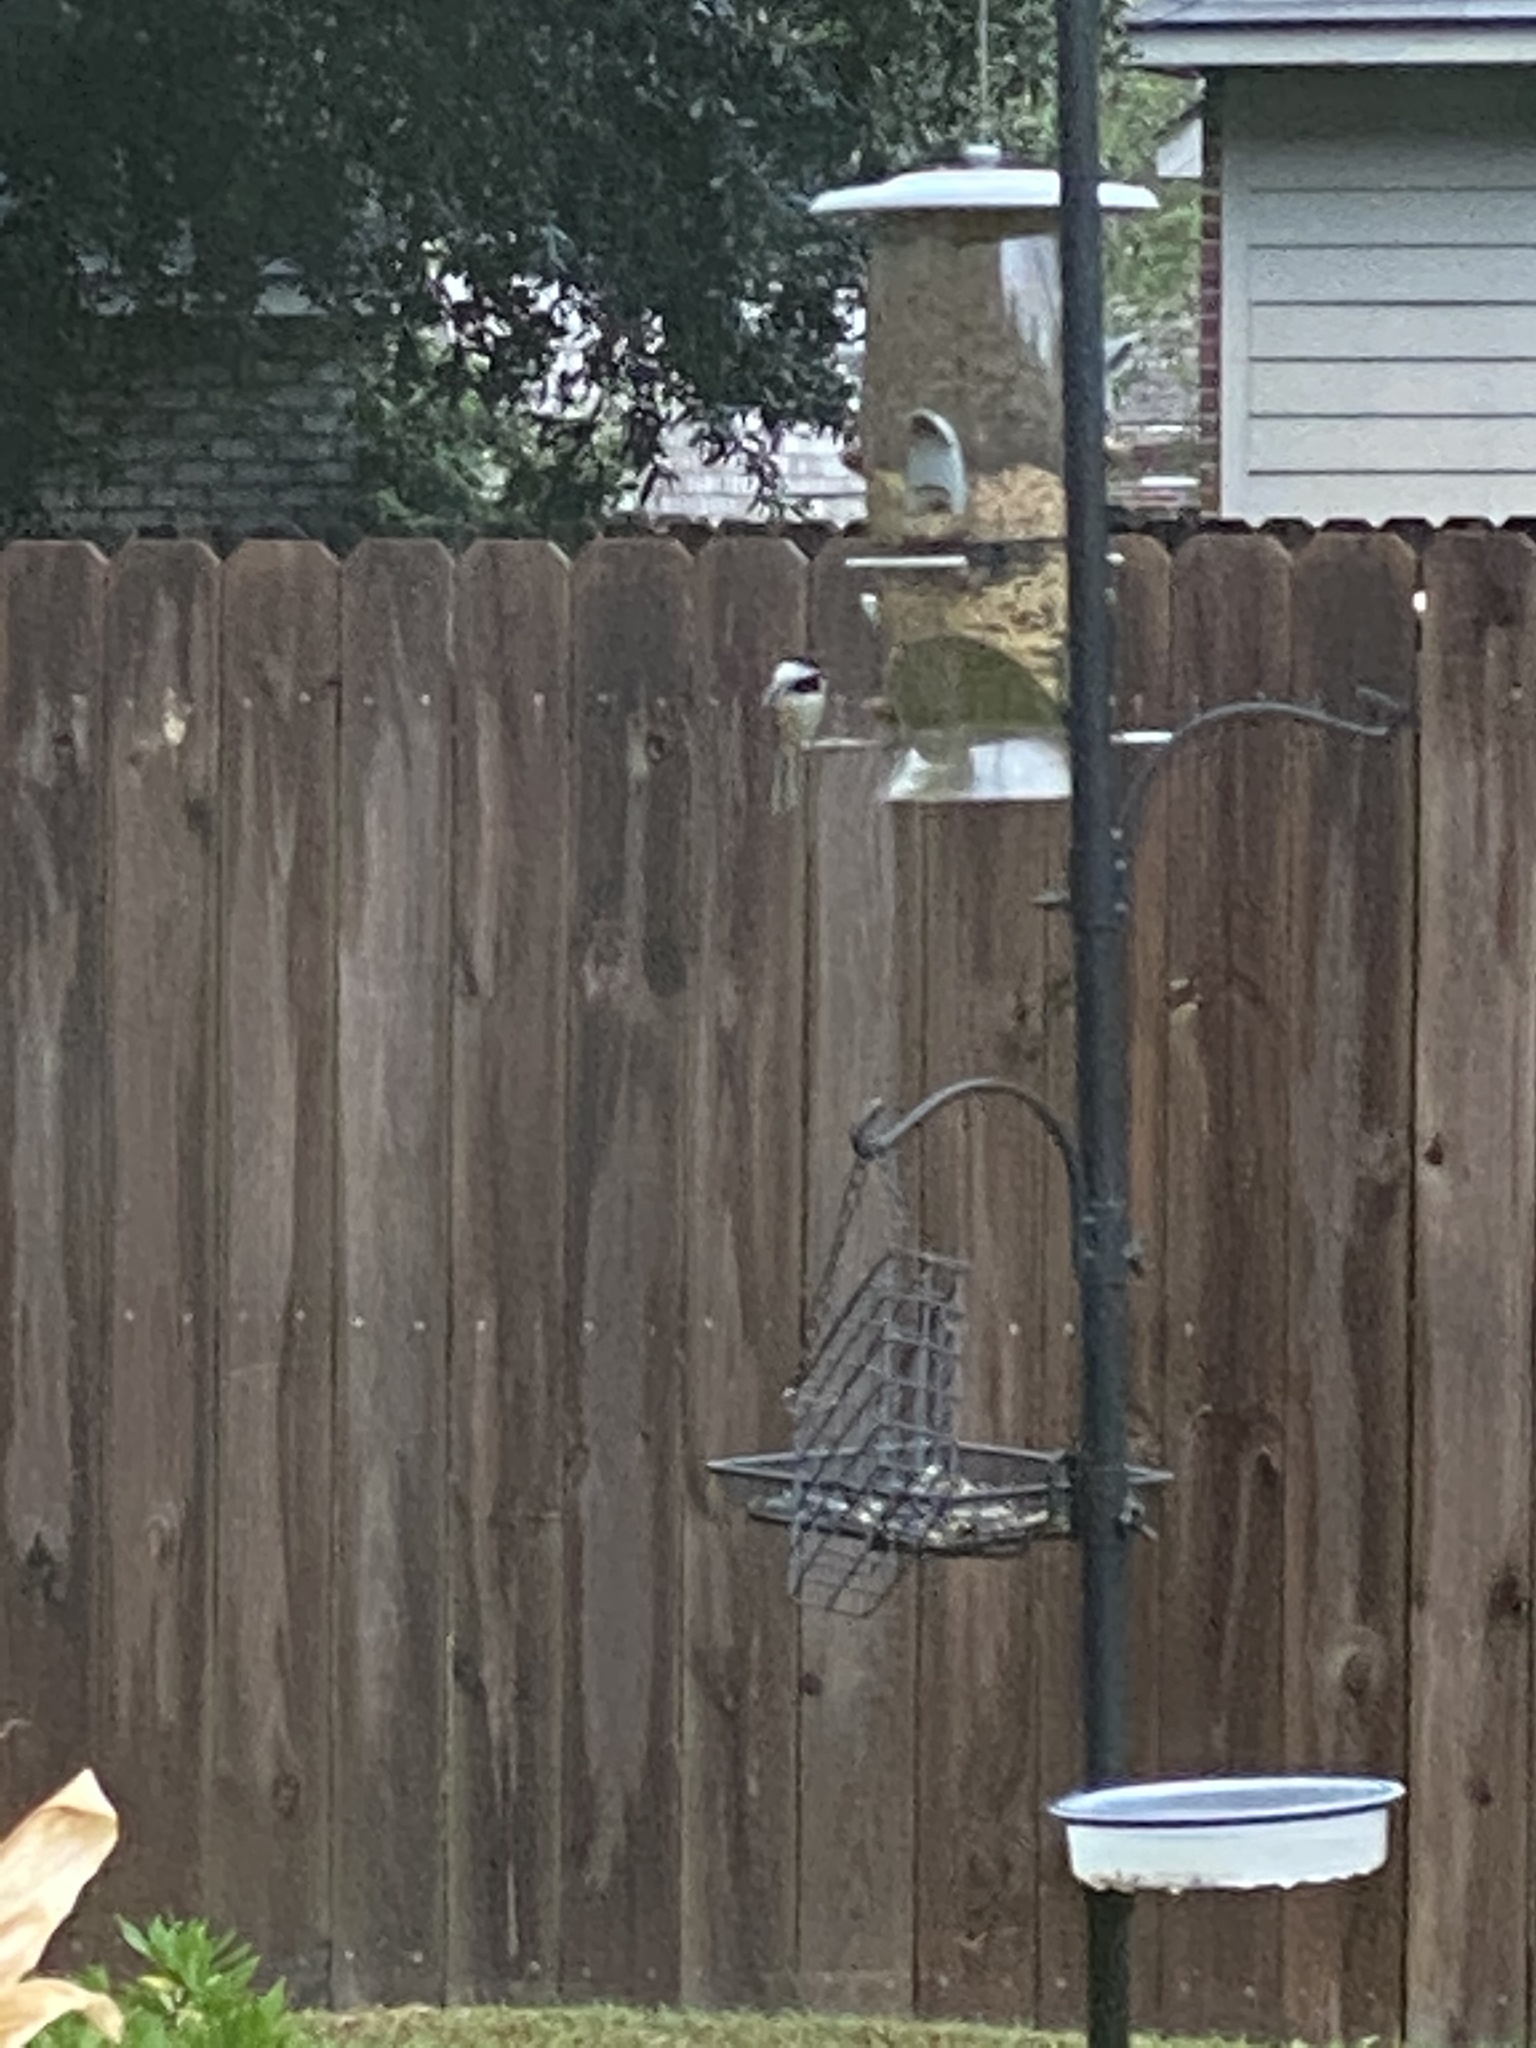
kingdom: Animalia
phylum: Chordata
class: Aves
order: Passeriformes
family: Paridae
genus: Poecile
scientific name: Poecile carolinensis
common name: Carolina chickadee
